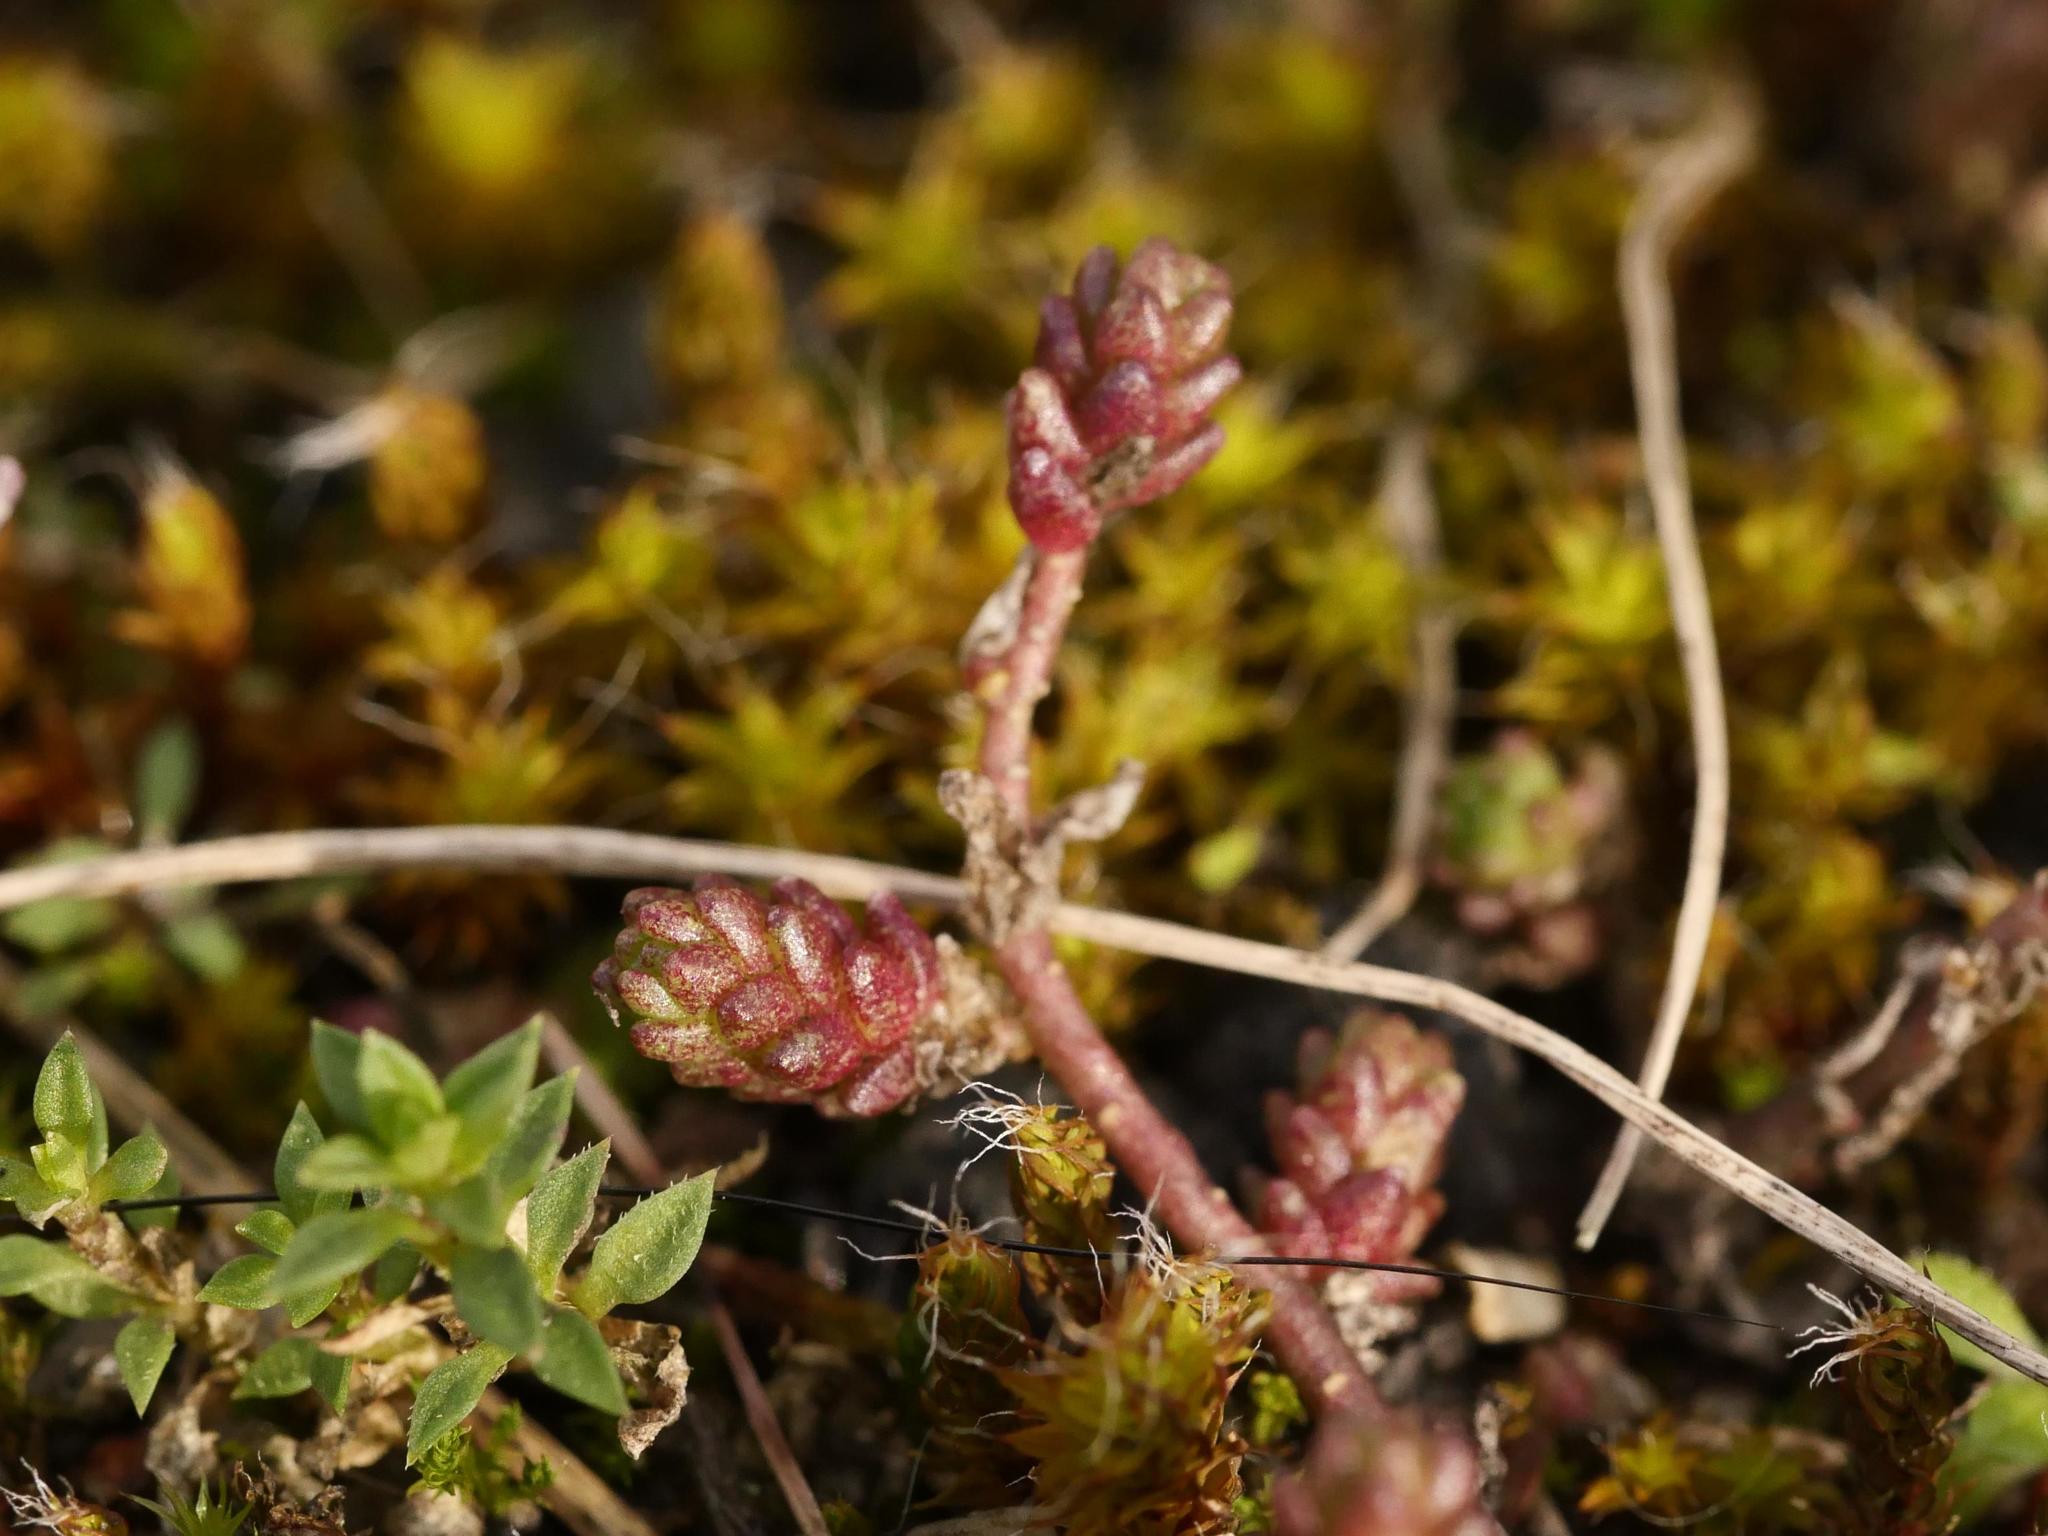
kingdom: Plantae
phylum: Tracheophyta
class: Magnoliopsida
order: Saxifragales
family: Crassulaceae
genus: Sedum
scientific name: Sedum acre
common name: Biting stonecrop
